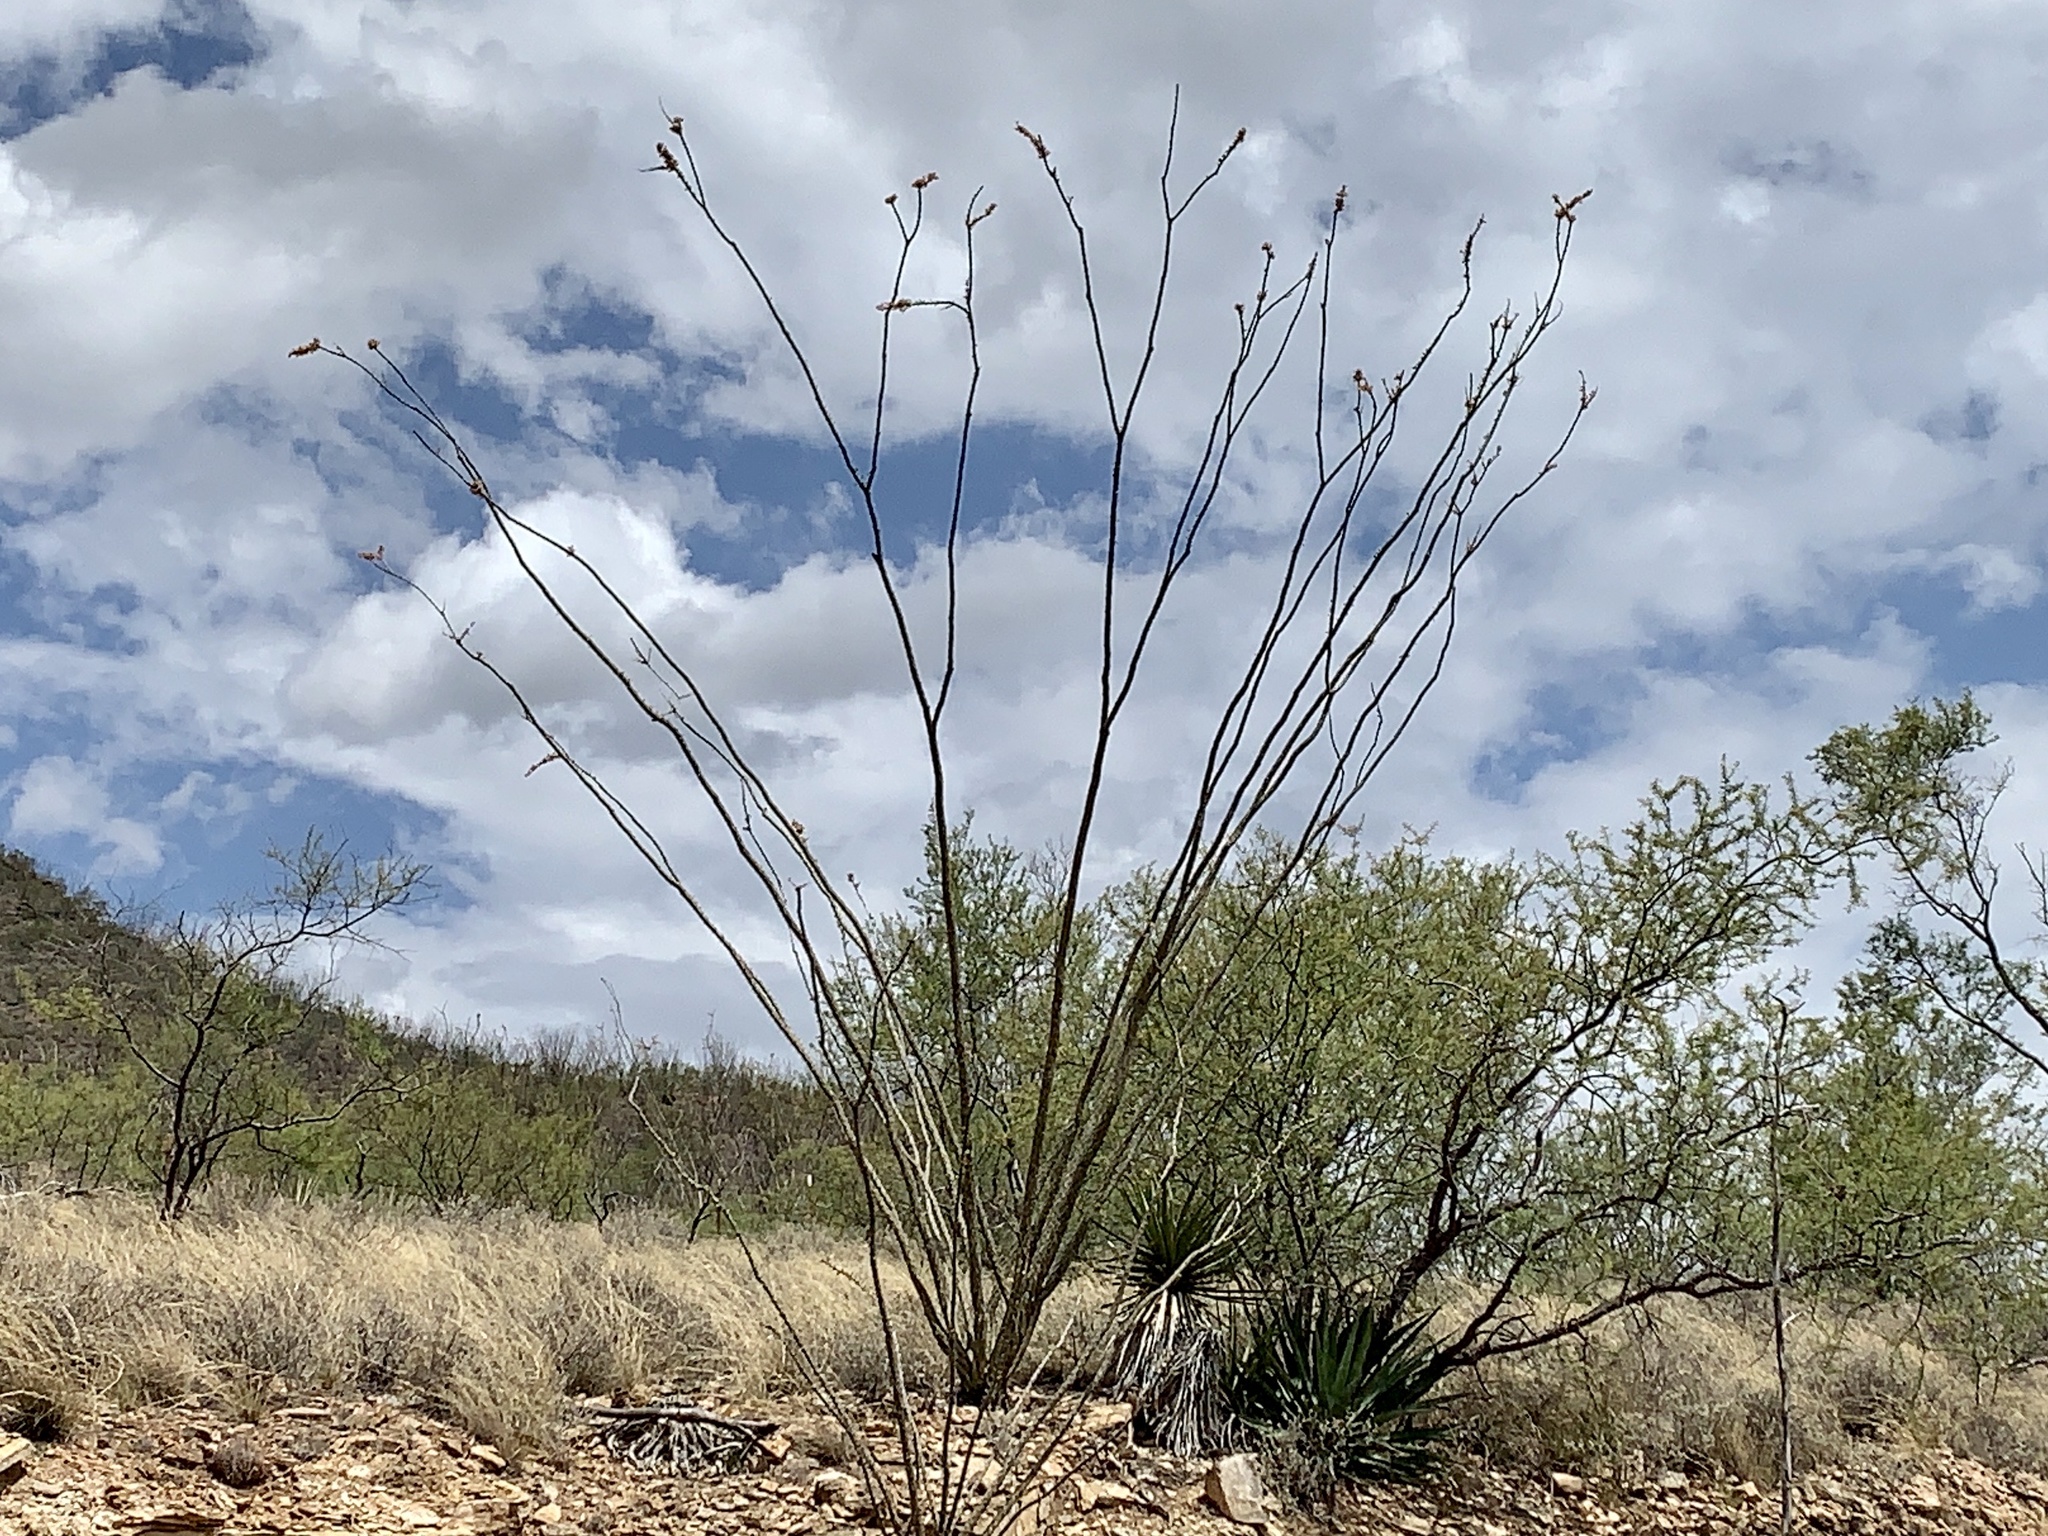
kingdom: Plantae
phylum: Tracheophyta
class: Magnoliopsida
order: Ericales
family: Fouquieriaceae
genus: Fouquieria
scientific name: Fouquieria splendens
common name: Vine-cactus
